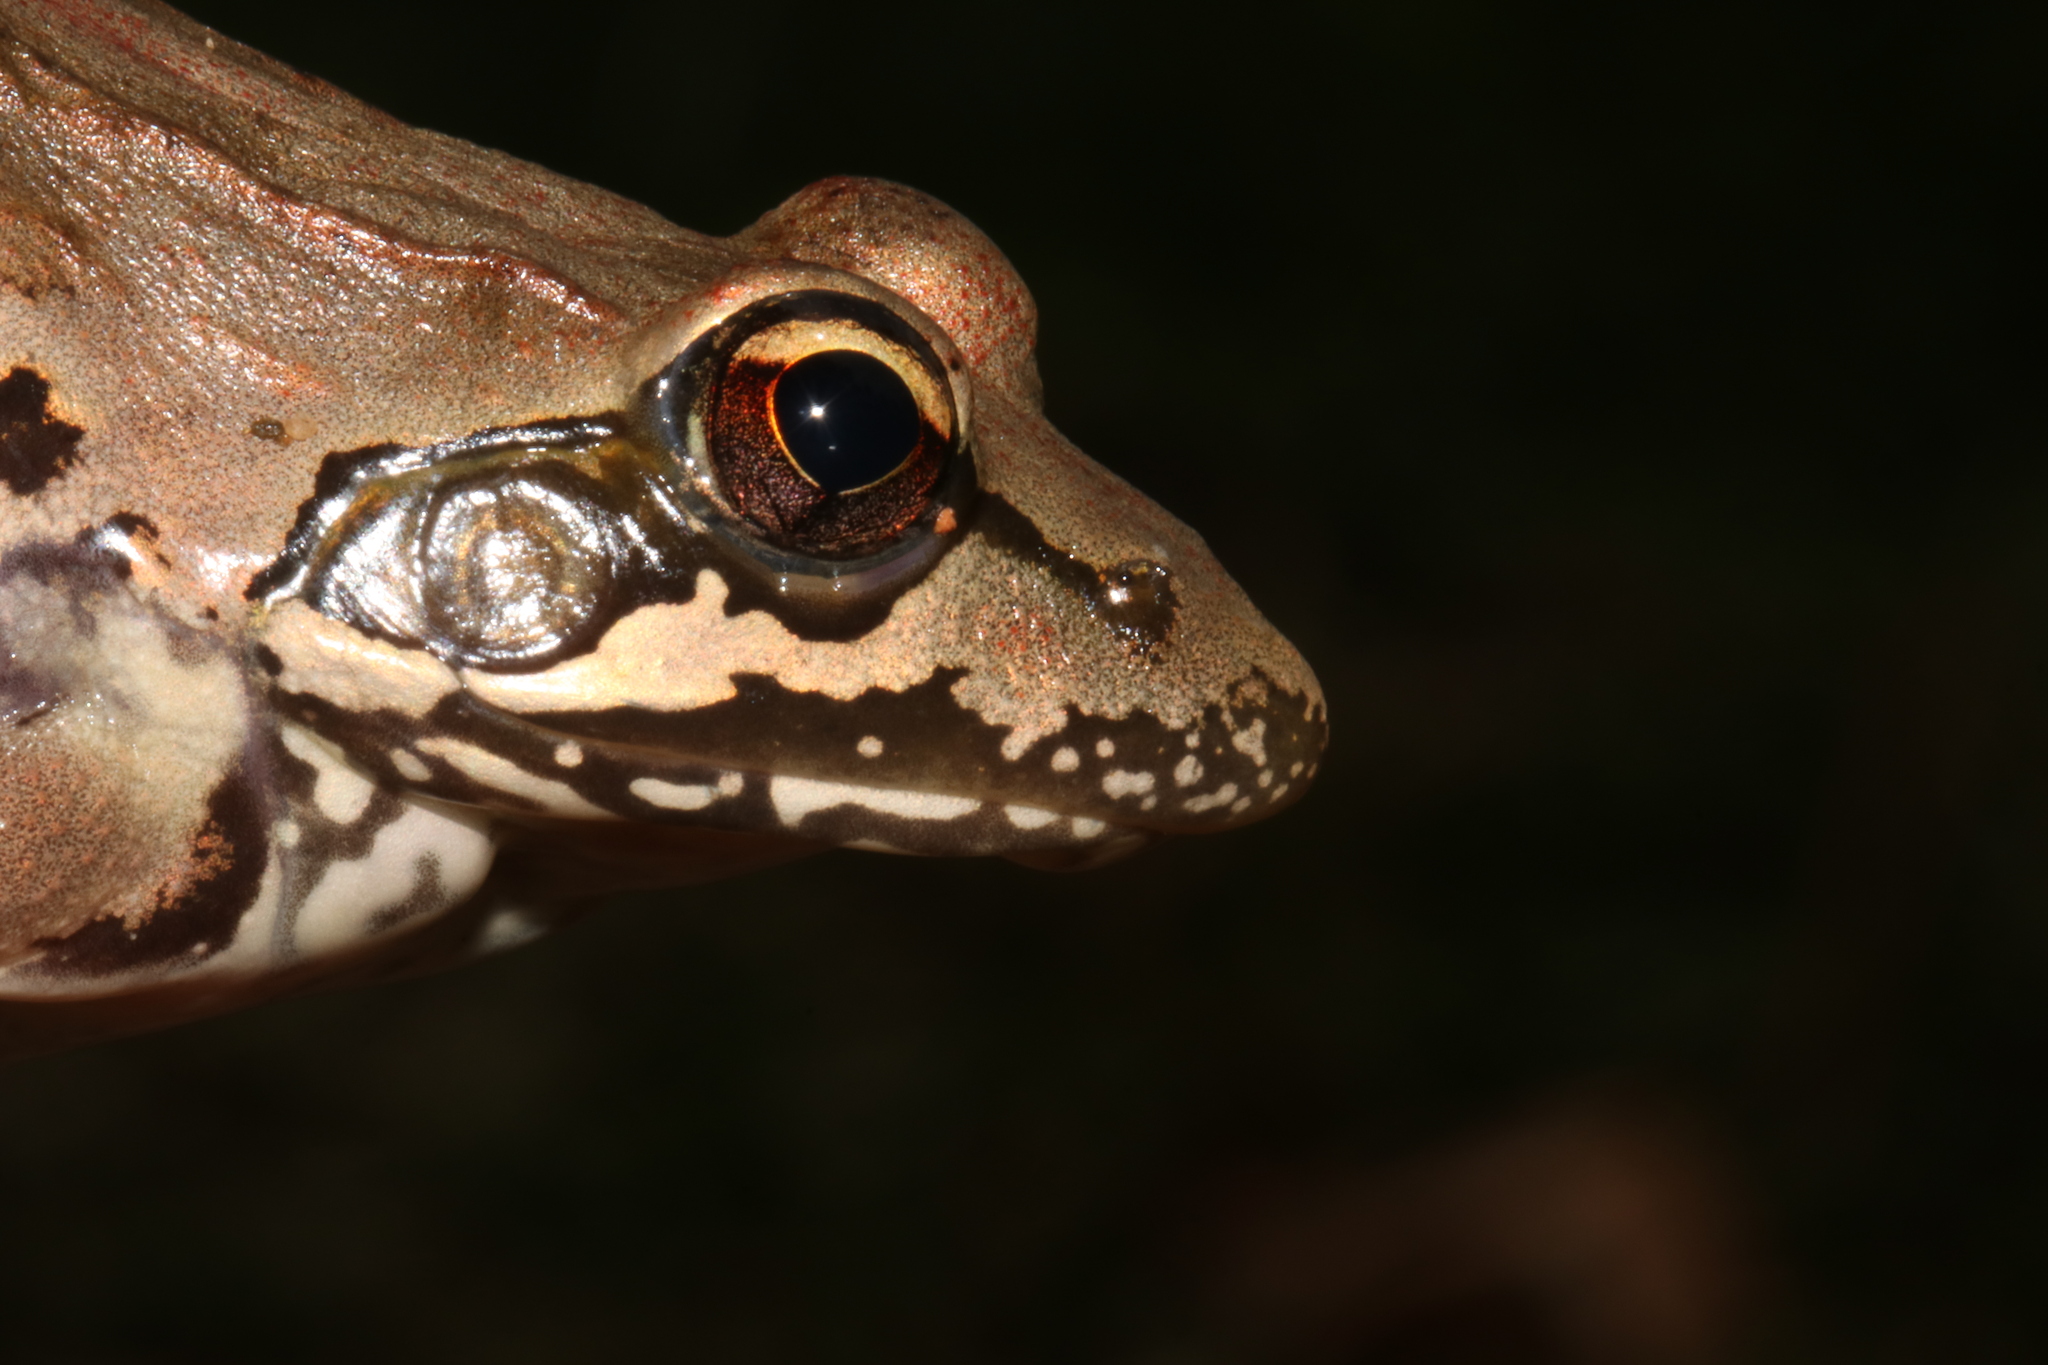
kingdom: Animalia
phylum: Chordata
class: Amphibia
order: Anura
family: Pyxicephalidae
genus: Amietia
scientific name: Amietia tenuoplicata
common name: River frog
